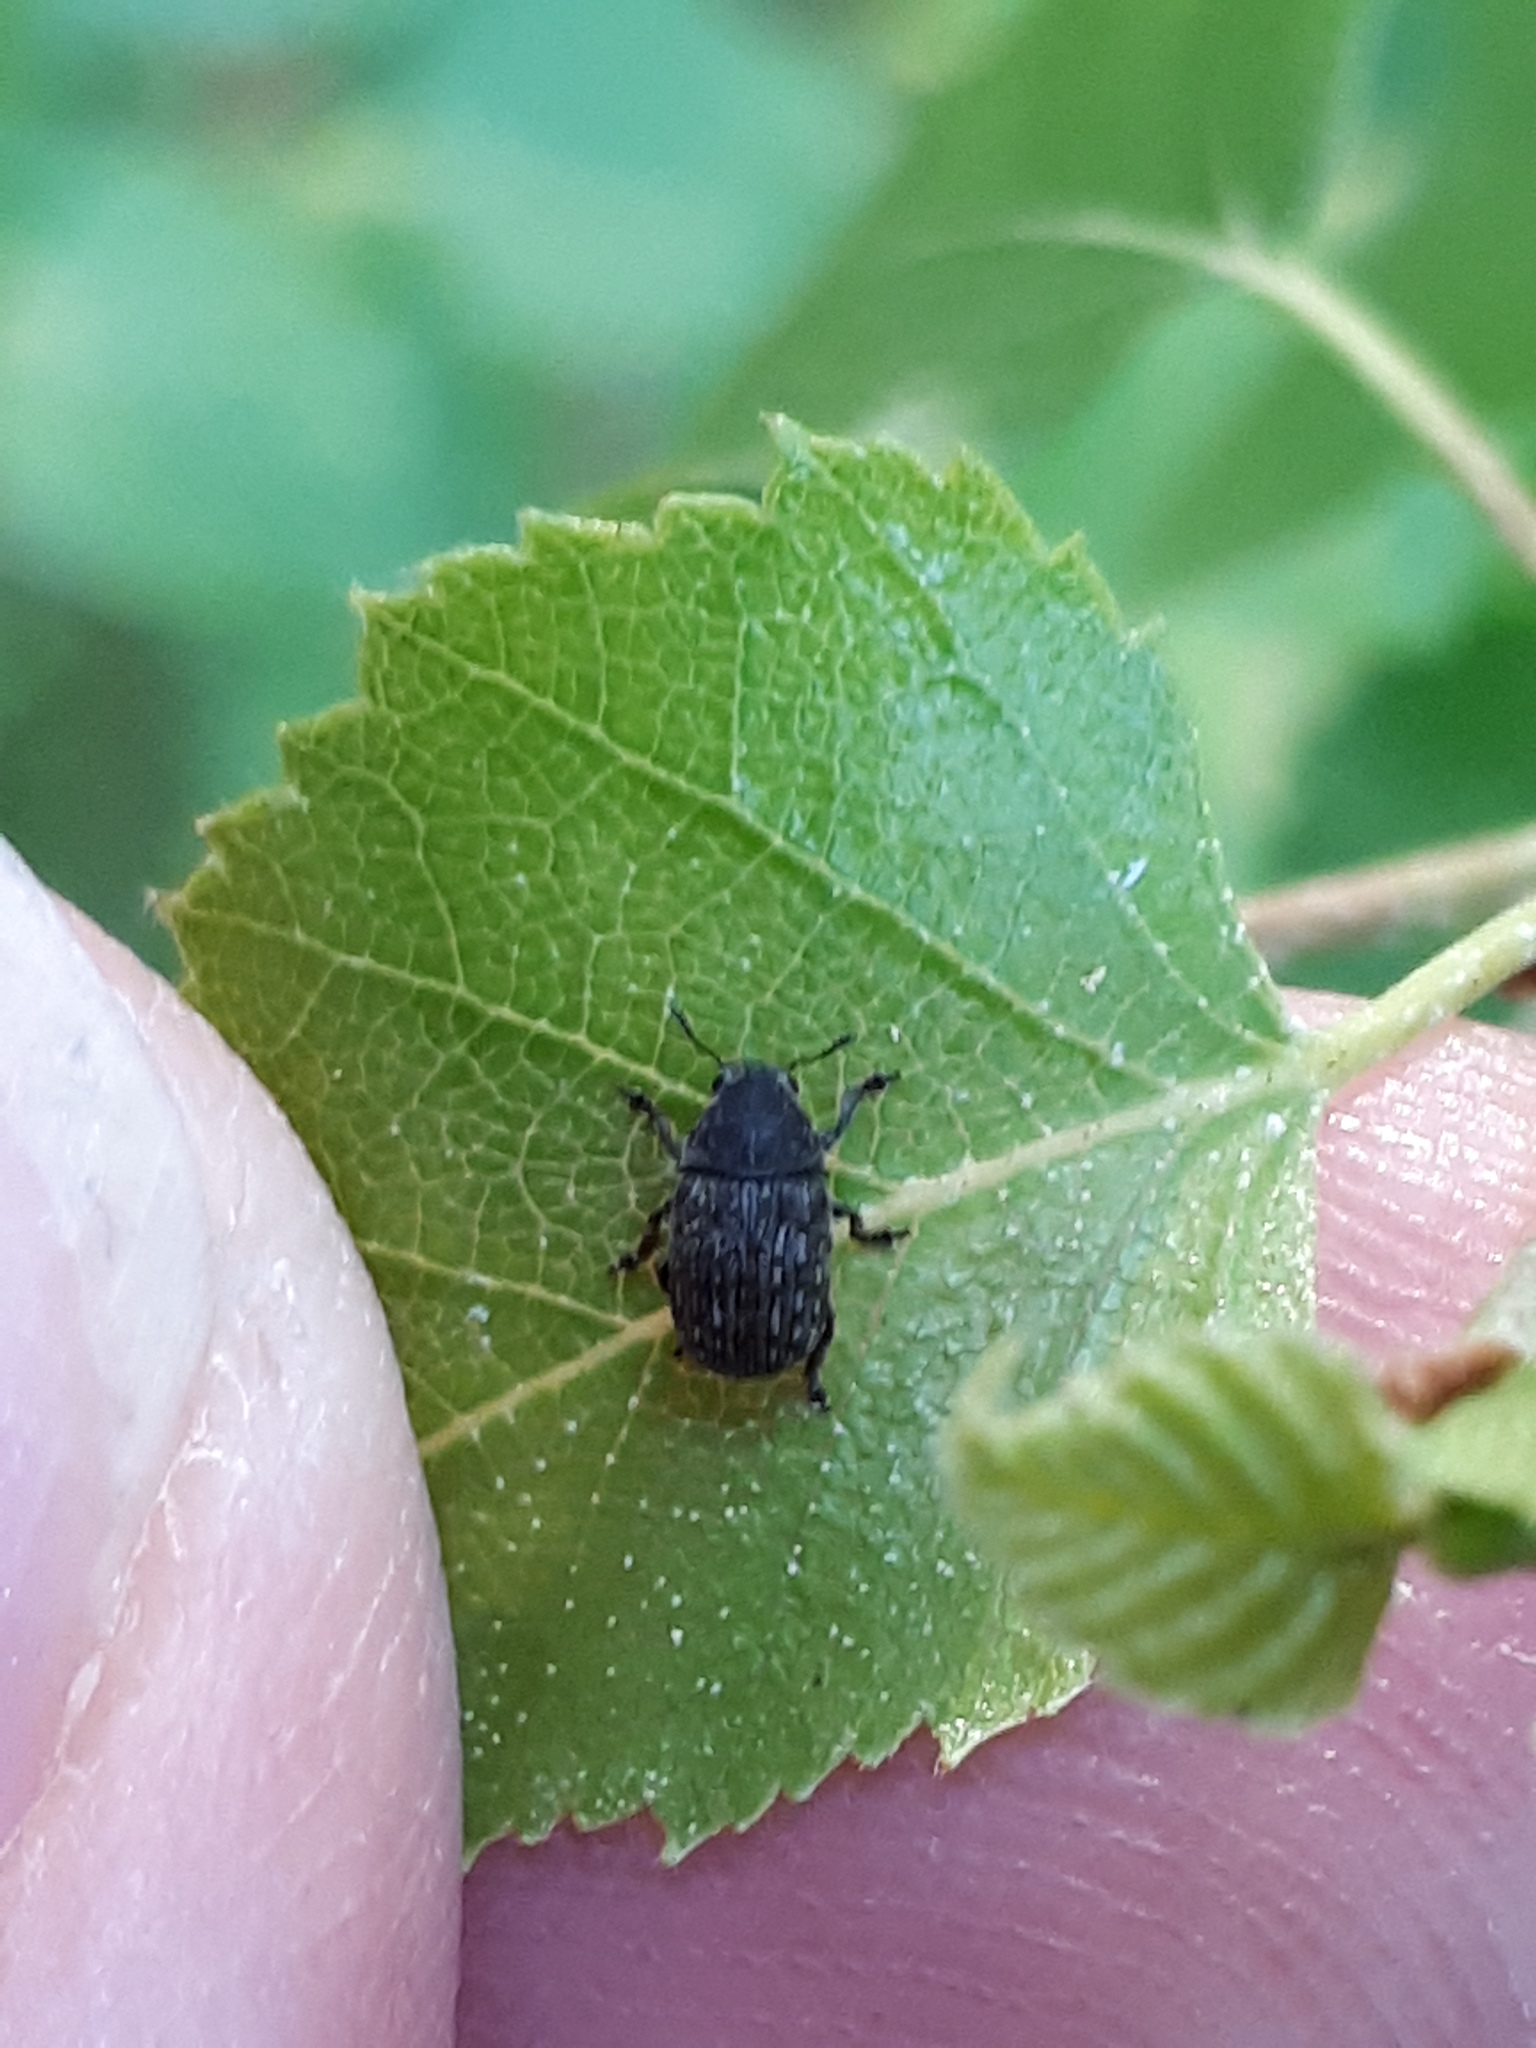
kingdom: Animalia
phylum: Arthropoda
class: Insecta
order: Coleoptera
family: Anthribidae
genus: Anthribus
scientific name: Anthribus nebulosus
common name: Fungus weevil
